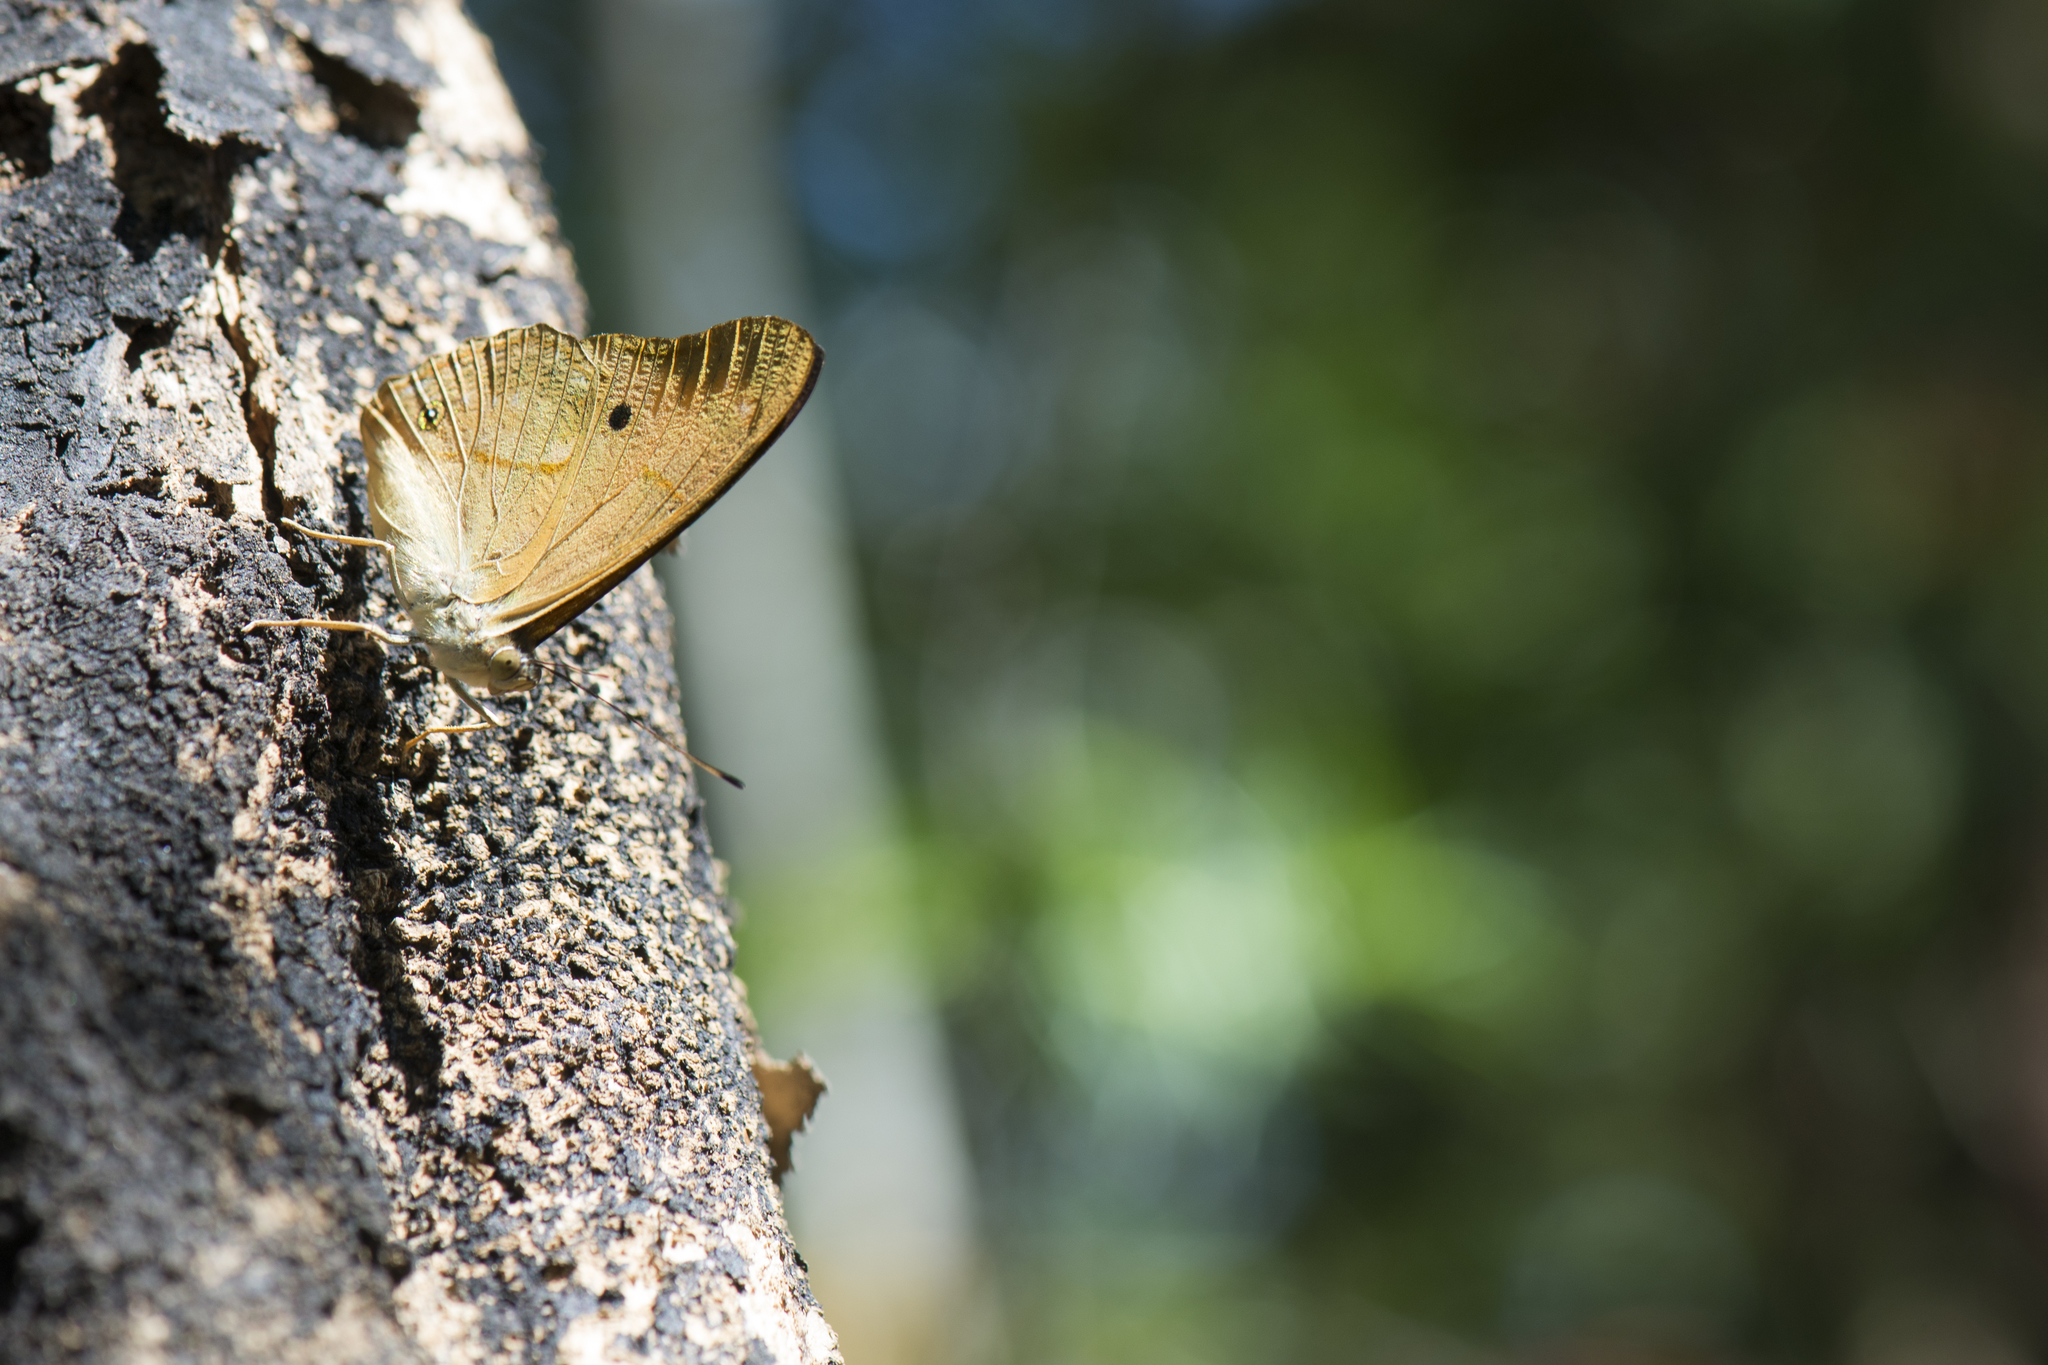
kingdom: Animalia
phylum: Arthropoda
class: Insecta
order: Lepidoptera
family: Nymphalidae
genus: Apatura
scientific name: Apatura Chitoria chrysolora
